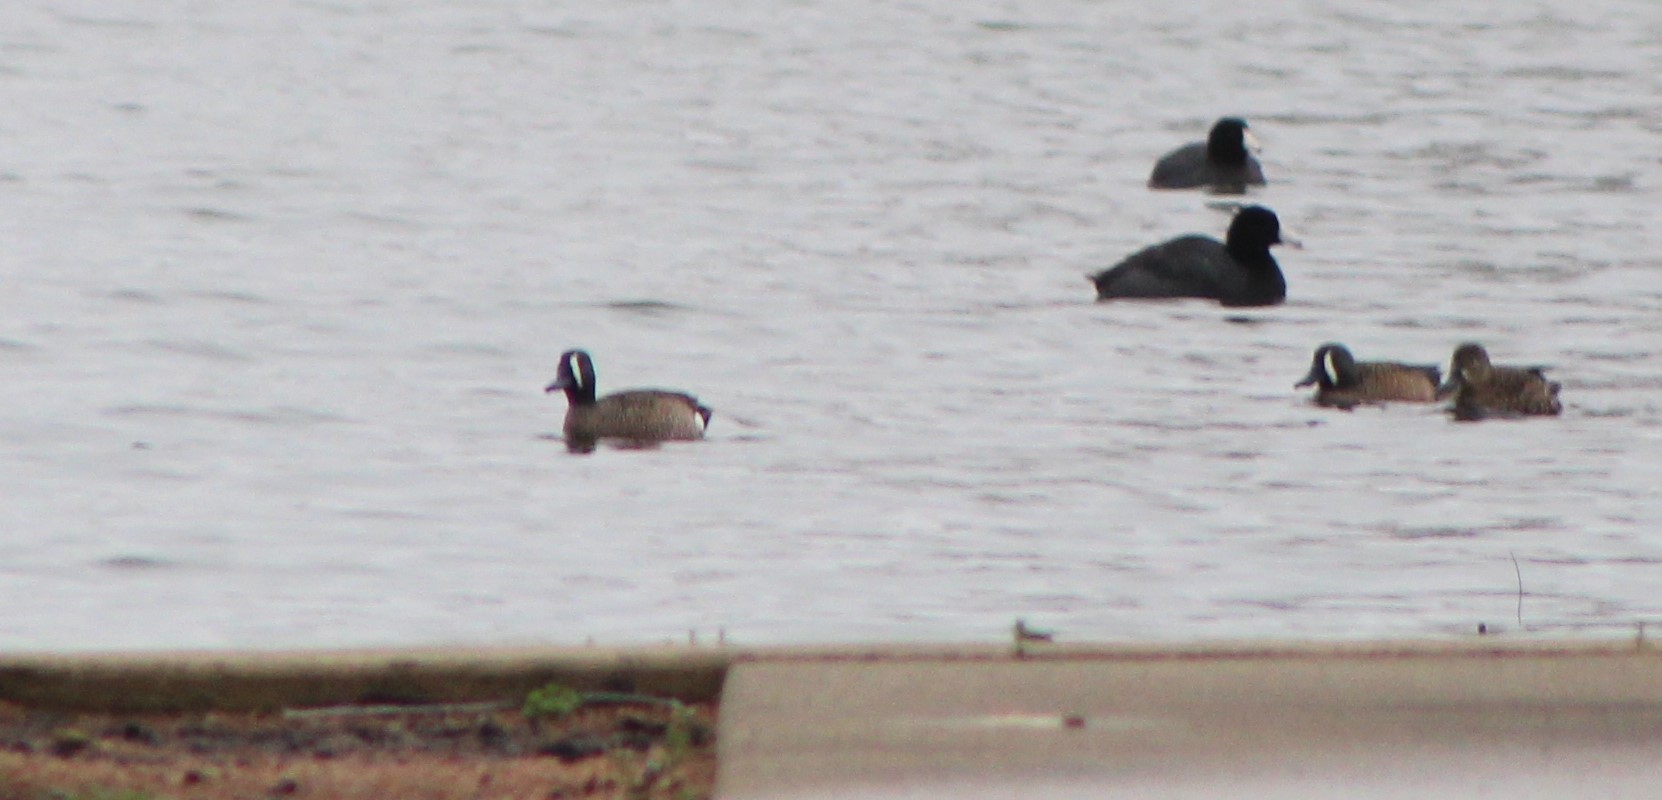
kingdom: Animalia
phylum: Chordata
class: Aves
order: Anseriformes
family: Anatidae
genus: Spatula
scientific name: Spatula discors
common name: Blue-winged teal
